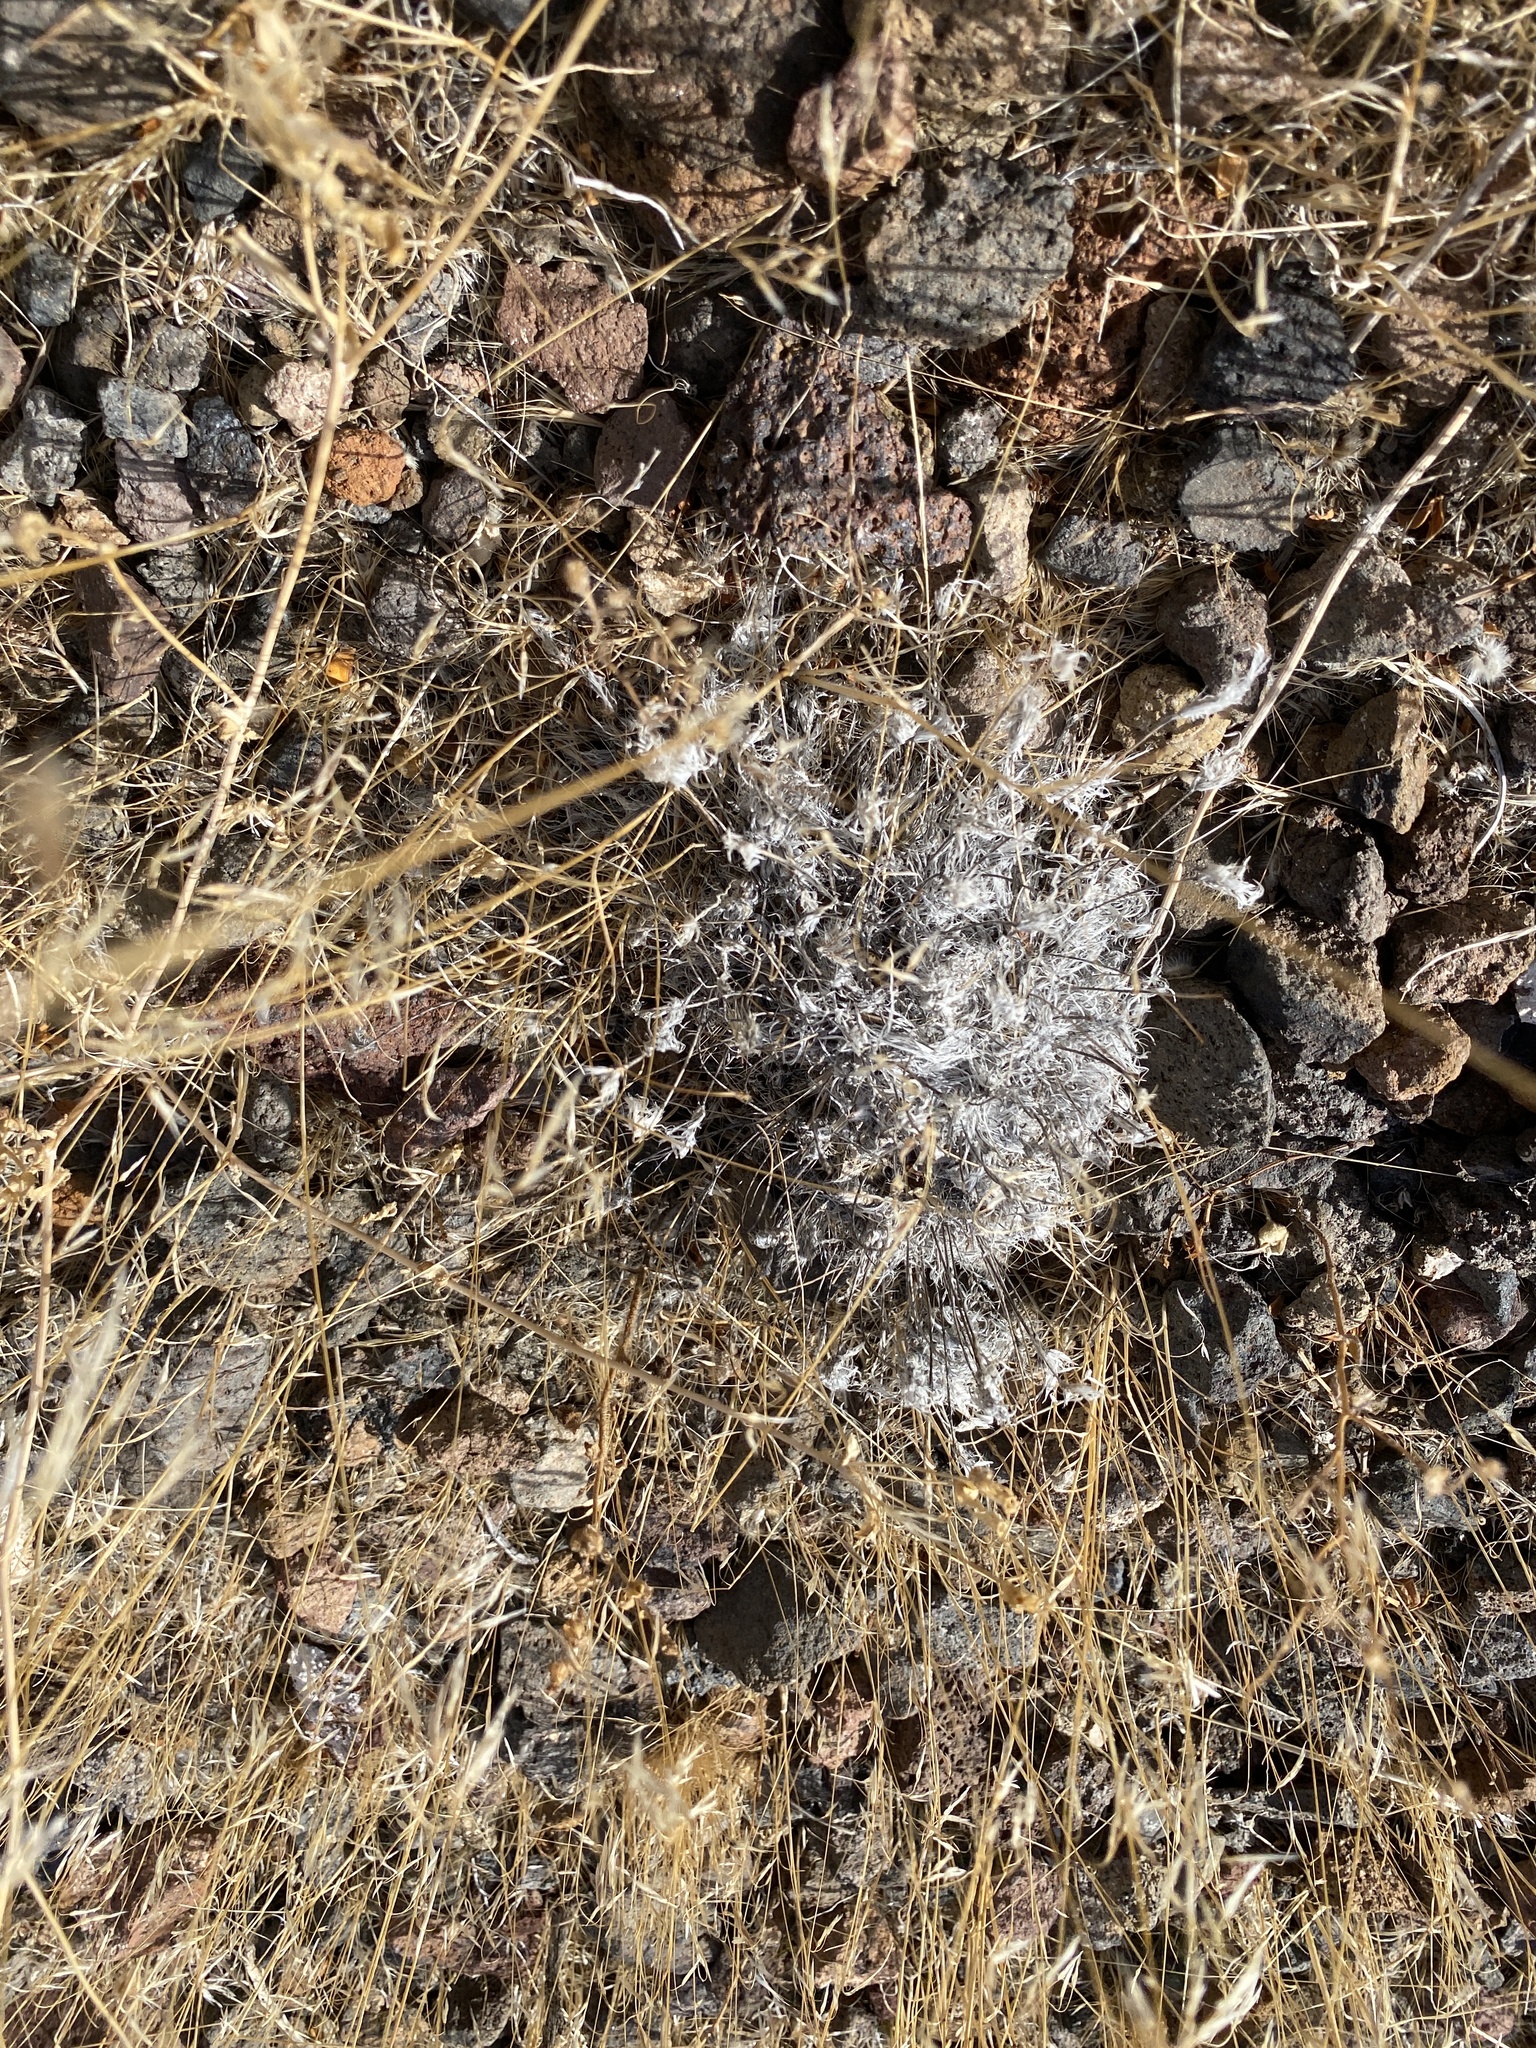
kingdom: Plantae
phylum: Tracheophyta
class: Liliopsida
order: Poales
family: Poaceae
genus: Dasyochloa
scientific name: Dasyochloa pulchella
